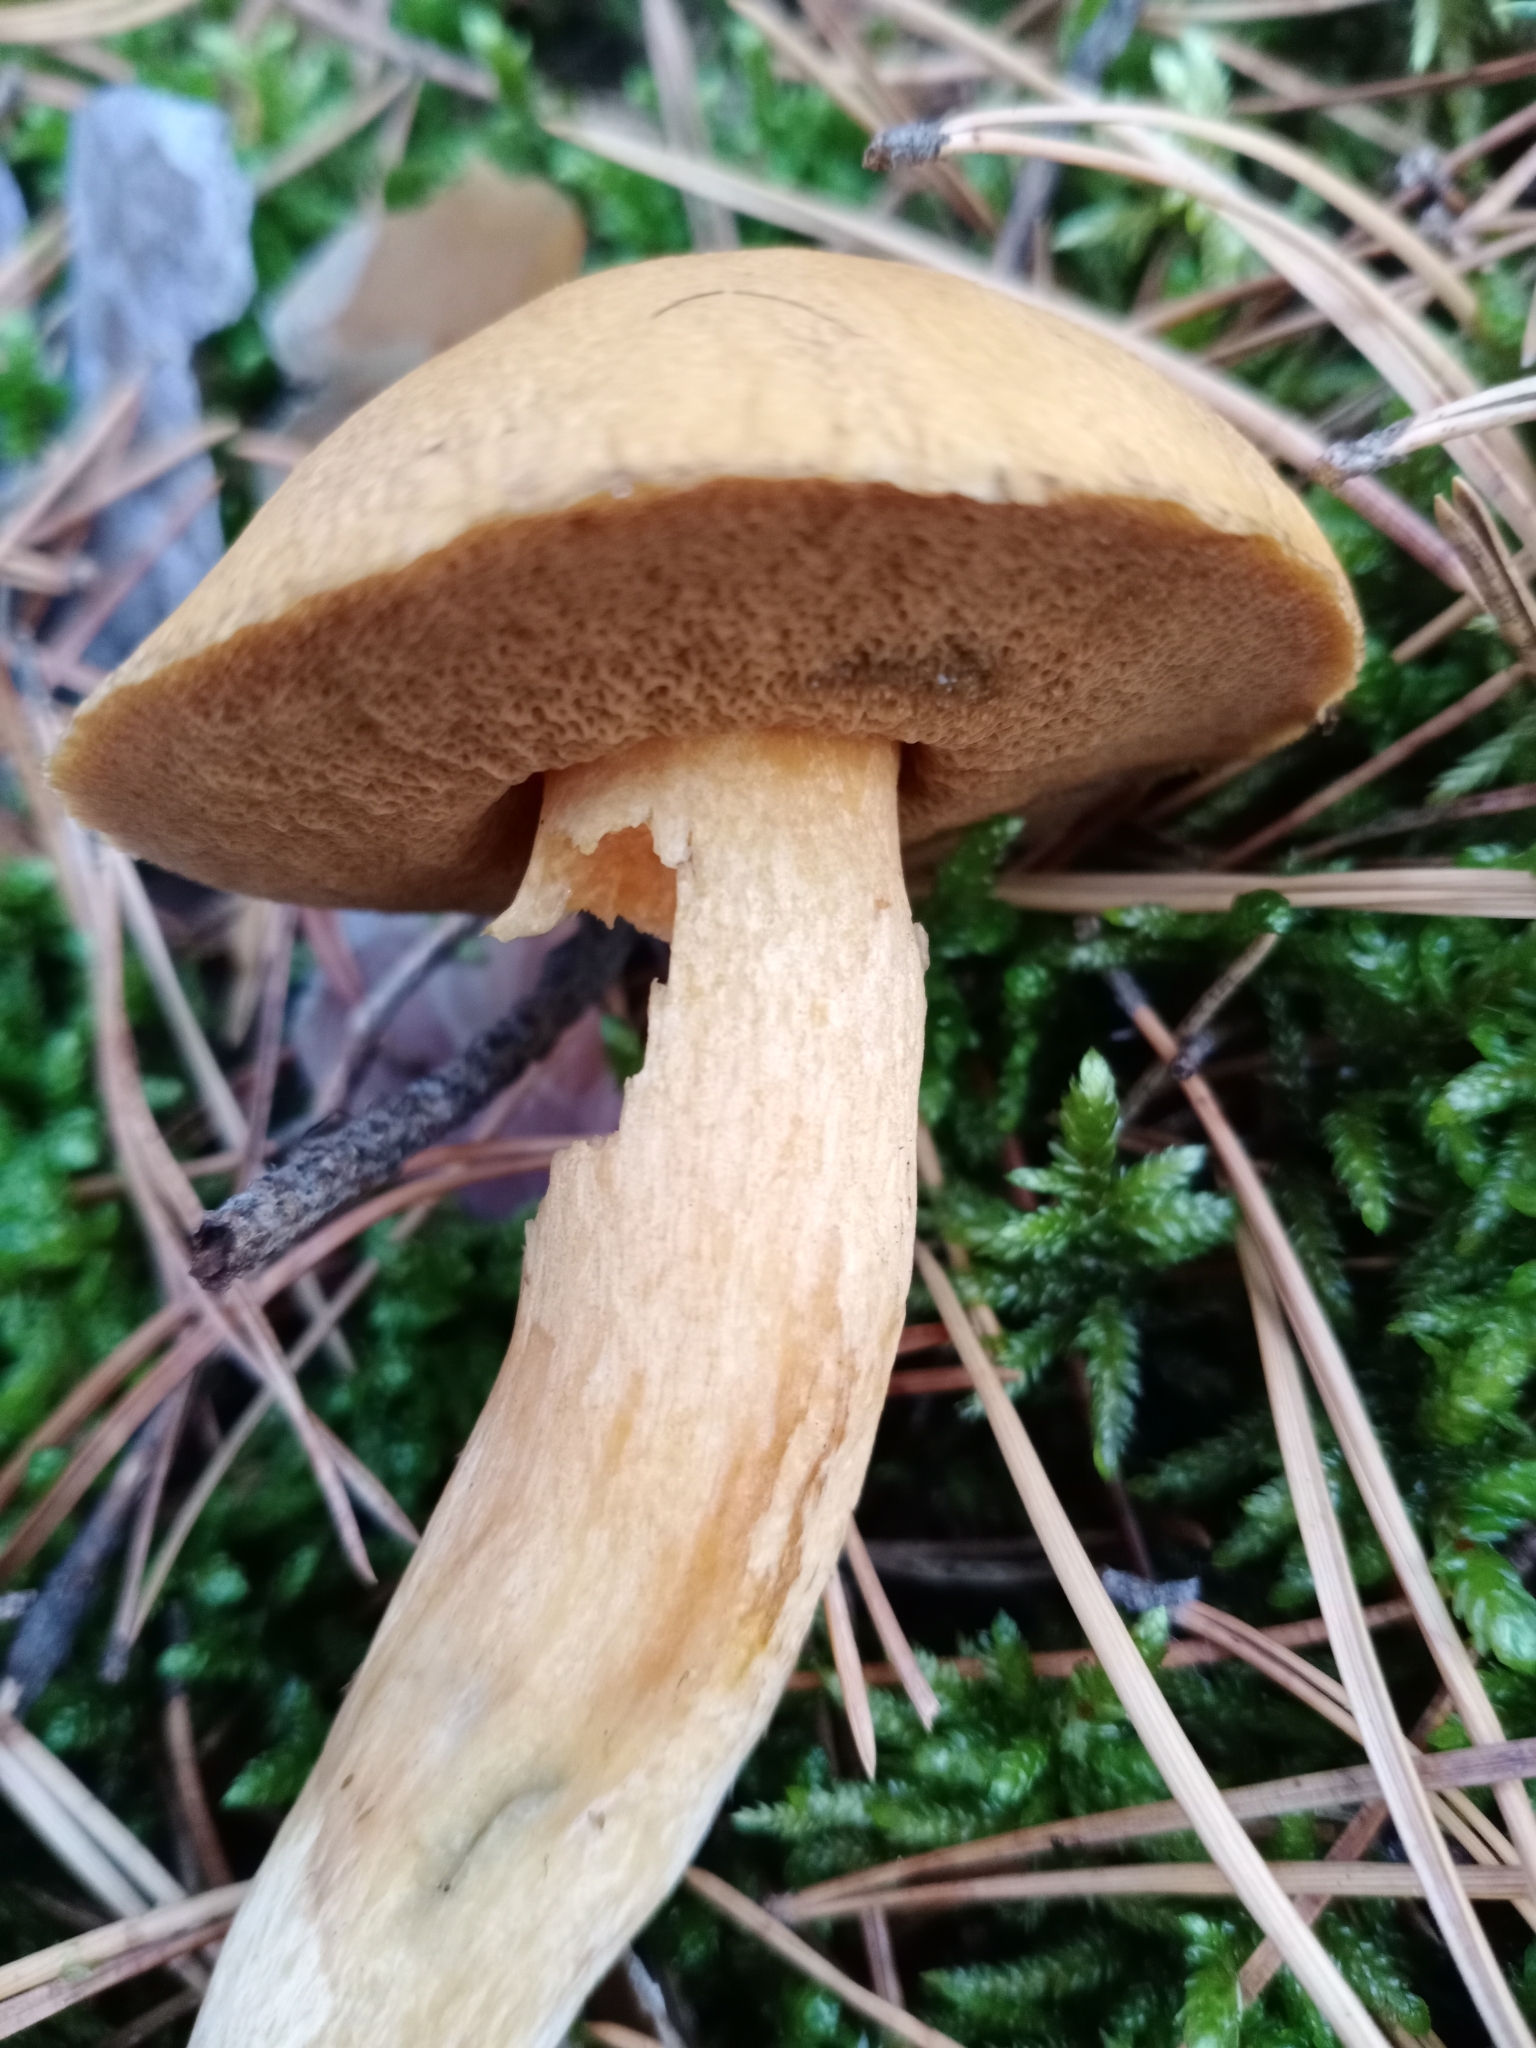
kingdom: Fungi
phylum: Basidiomycota
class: Agaricomycetes
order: Boletales
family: Suillaceae
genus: Suillus
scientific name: Suillus variegatus
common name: Velvet bolete
